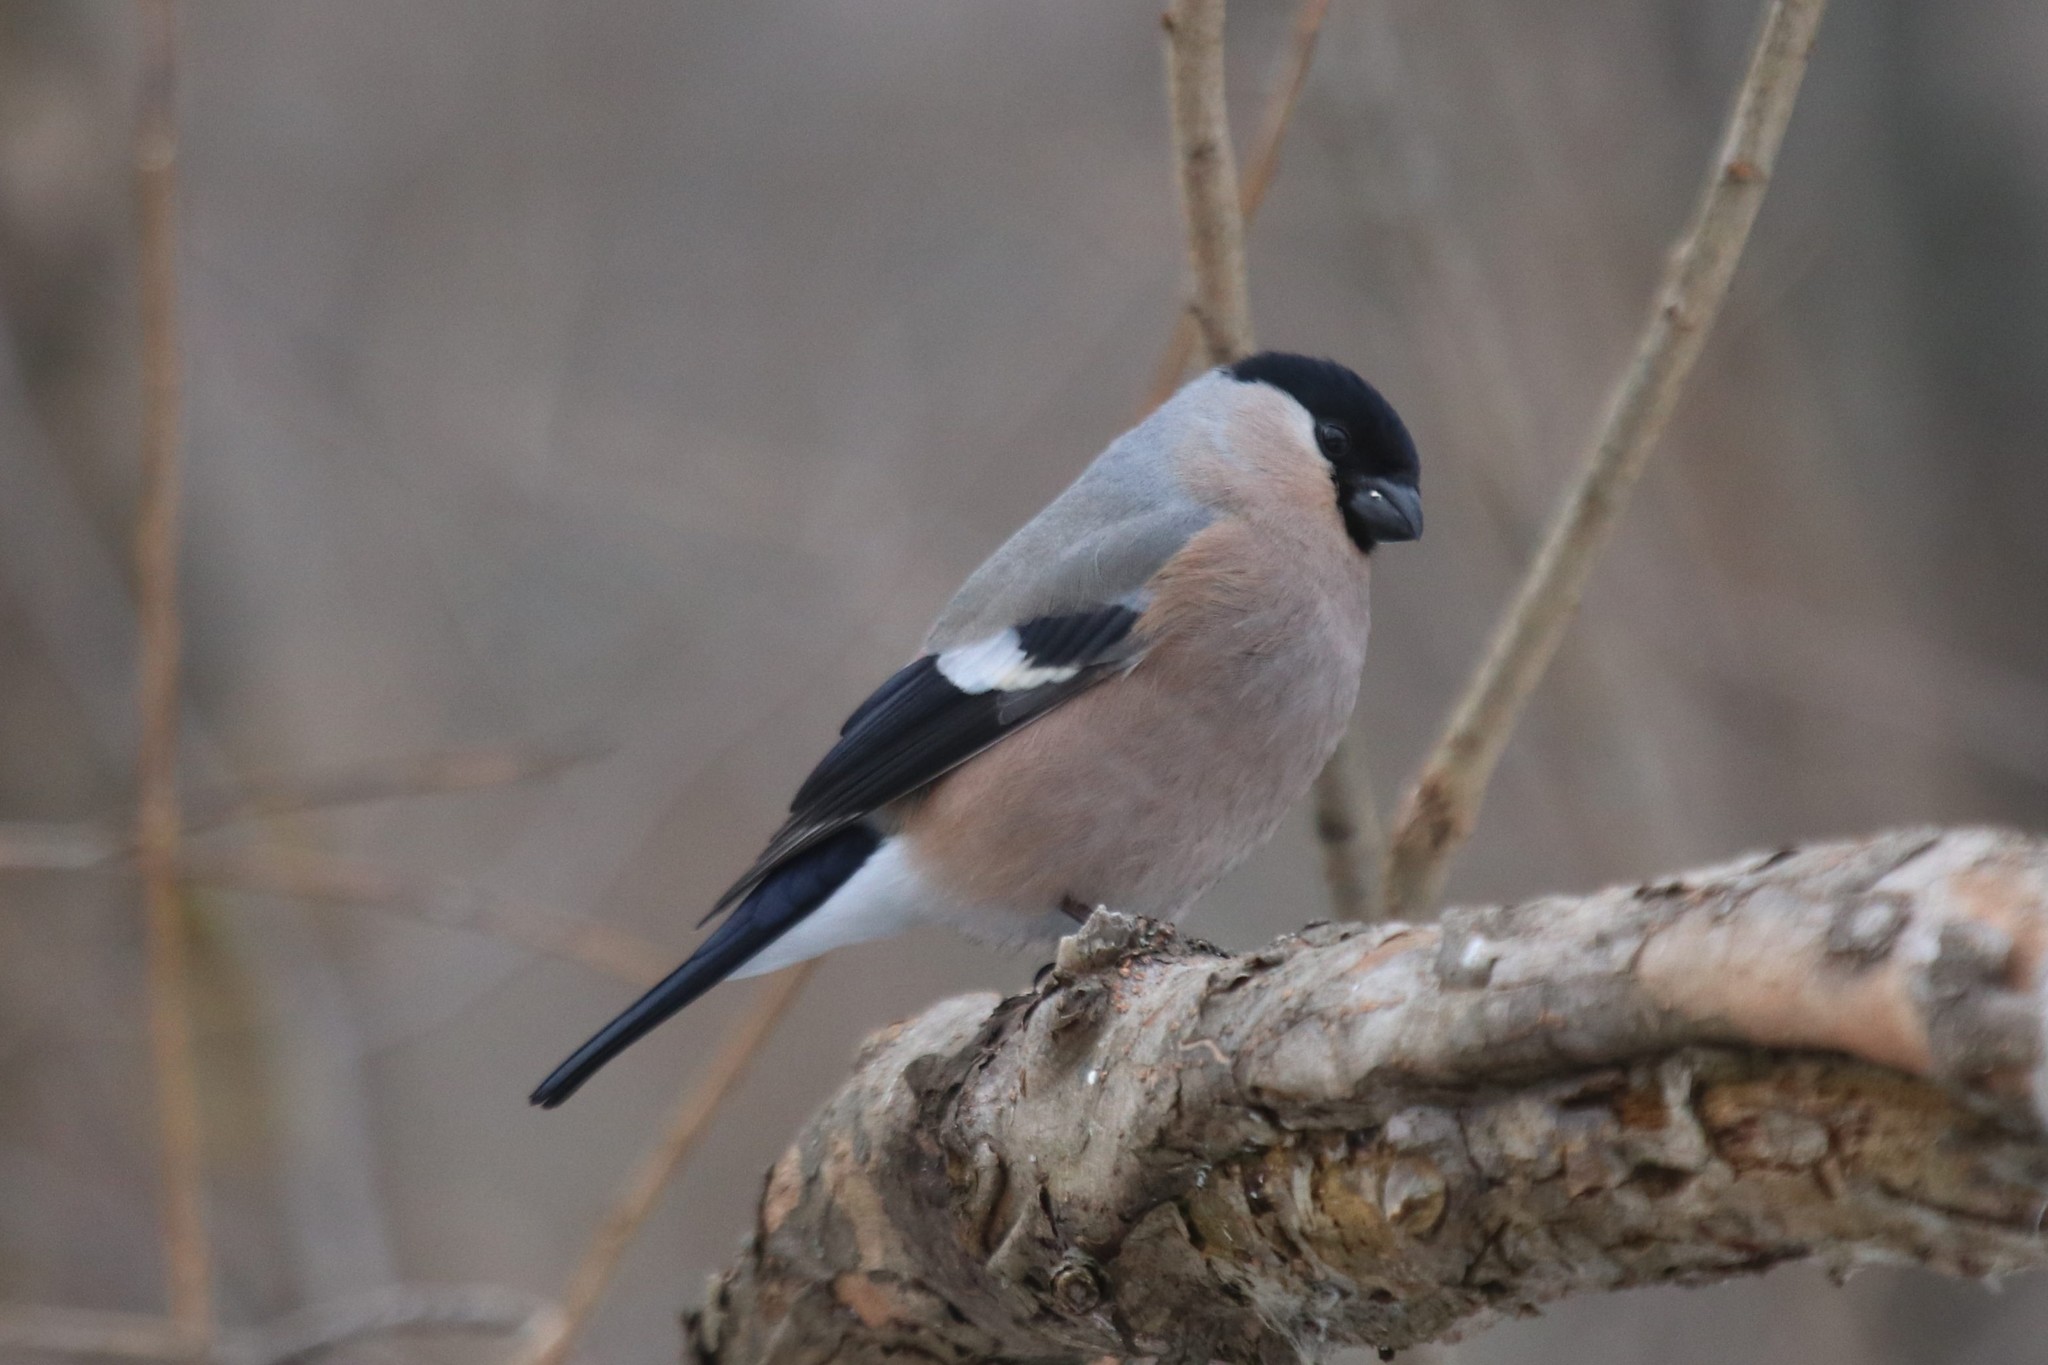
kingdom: Animalia
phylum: Chordata
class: Aves
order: Passeriformes
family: Fringillidae
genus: Pyrrhula
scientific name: Pyrrhula pyrrhula
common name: Eurasian bullfinch
